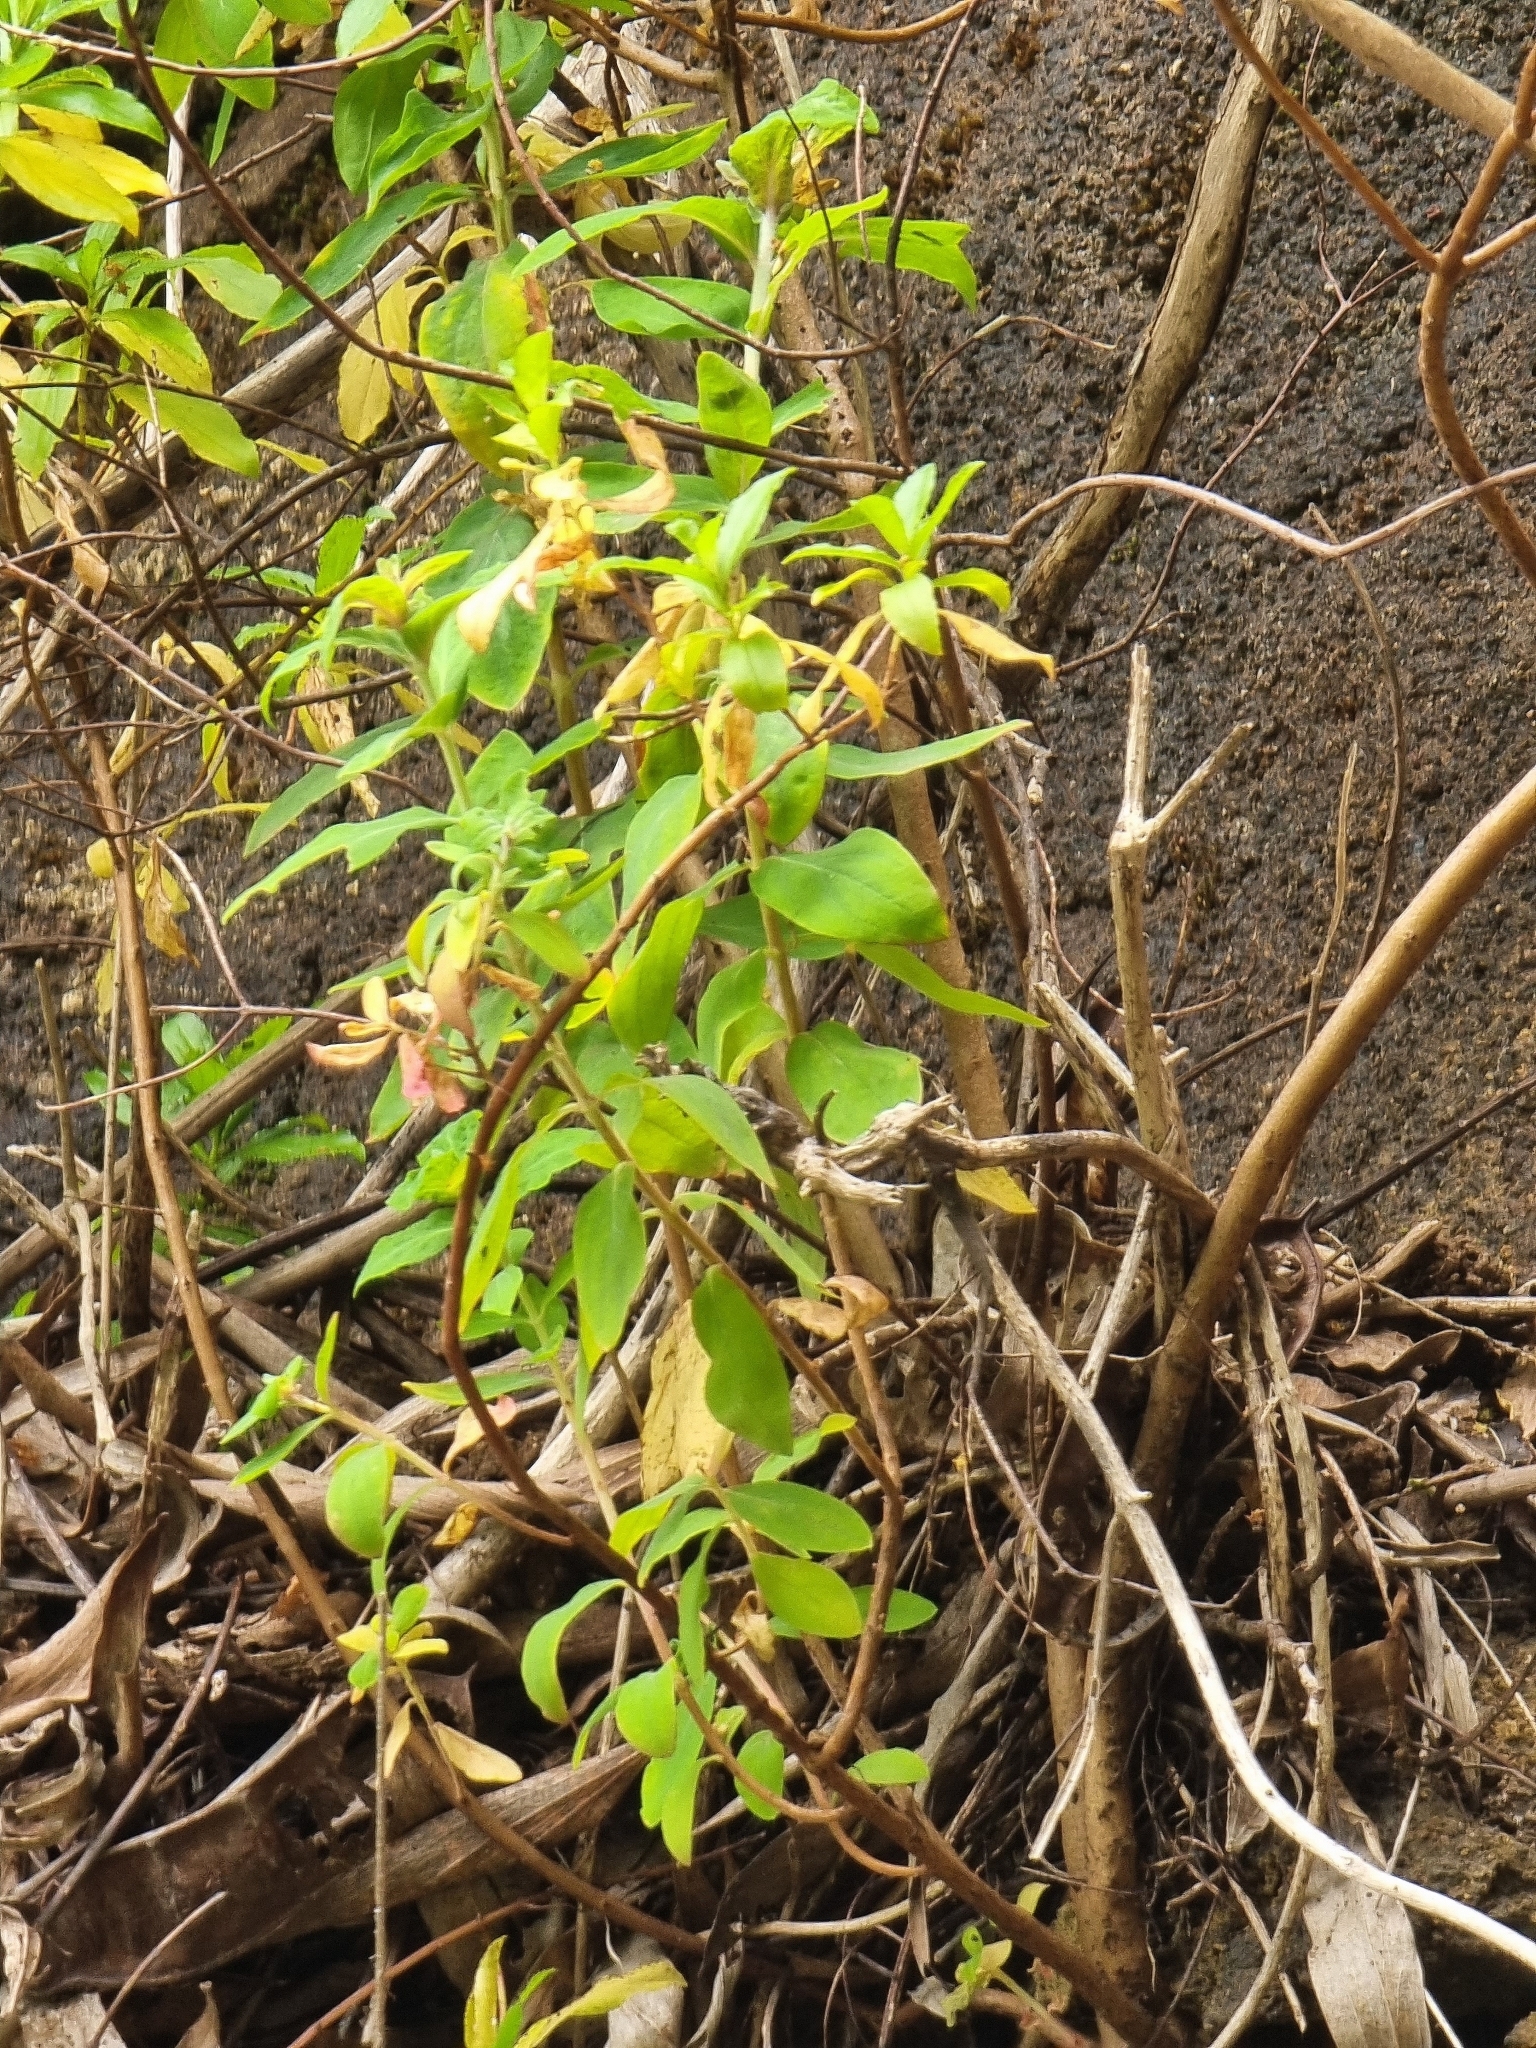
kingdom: Plantae
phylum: Tracheophyta
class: Magnoliopsida
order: Malpighiales
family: Hypericaceae
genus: Hypericum
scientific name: Hypericum glandulosum
